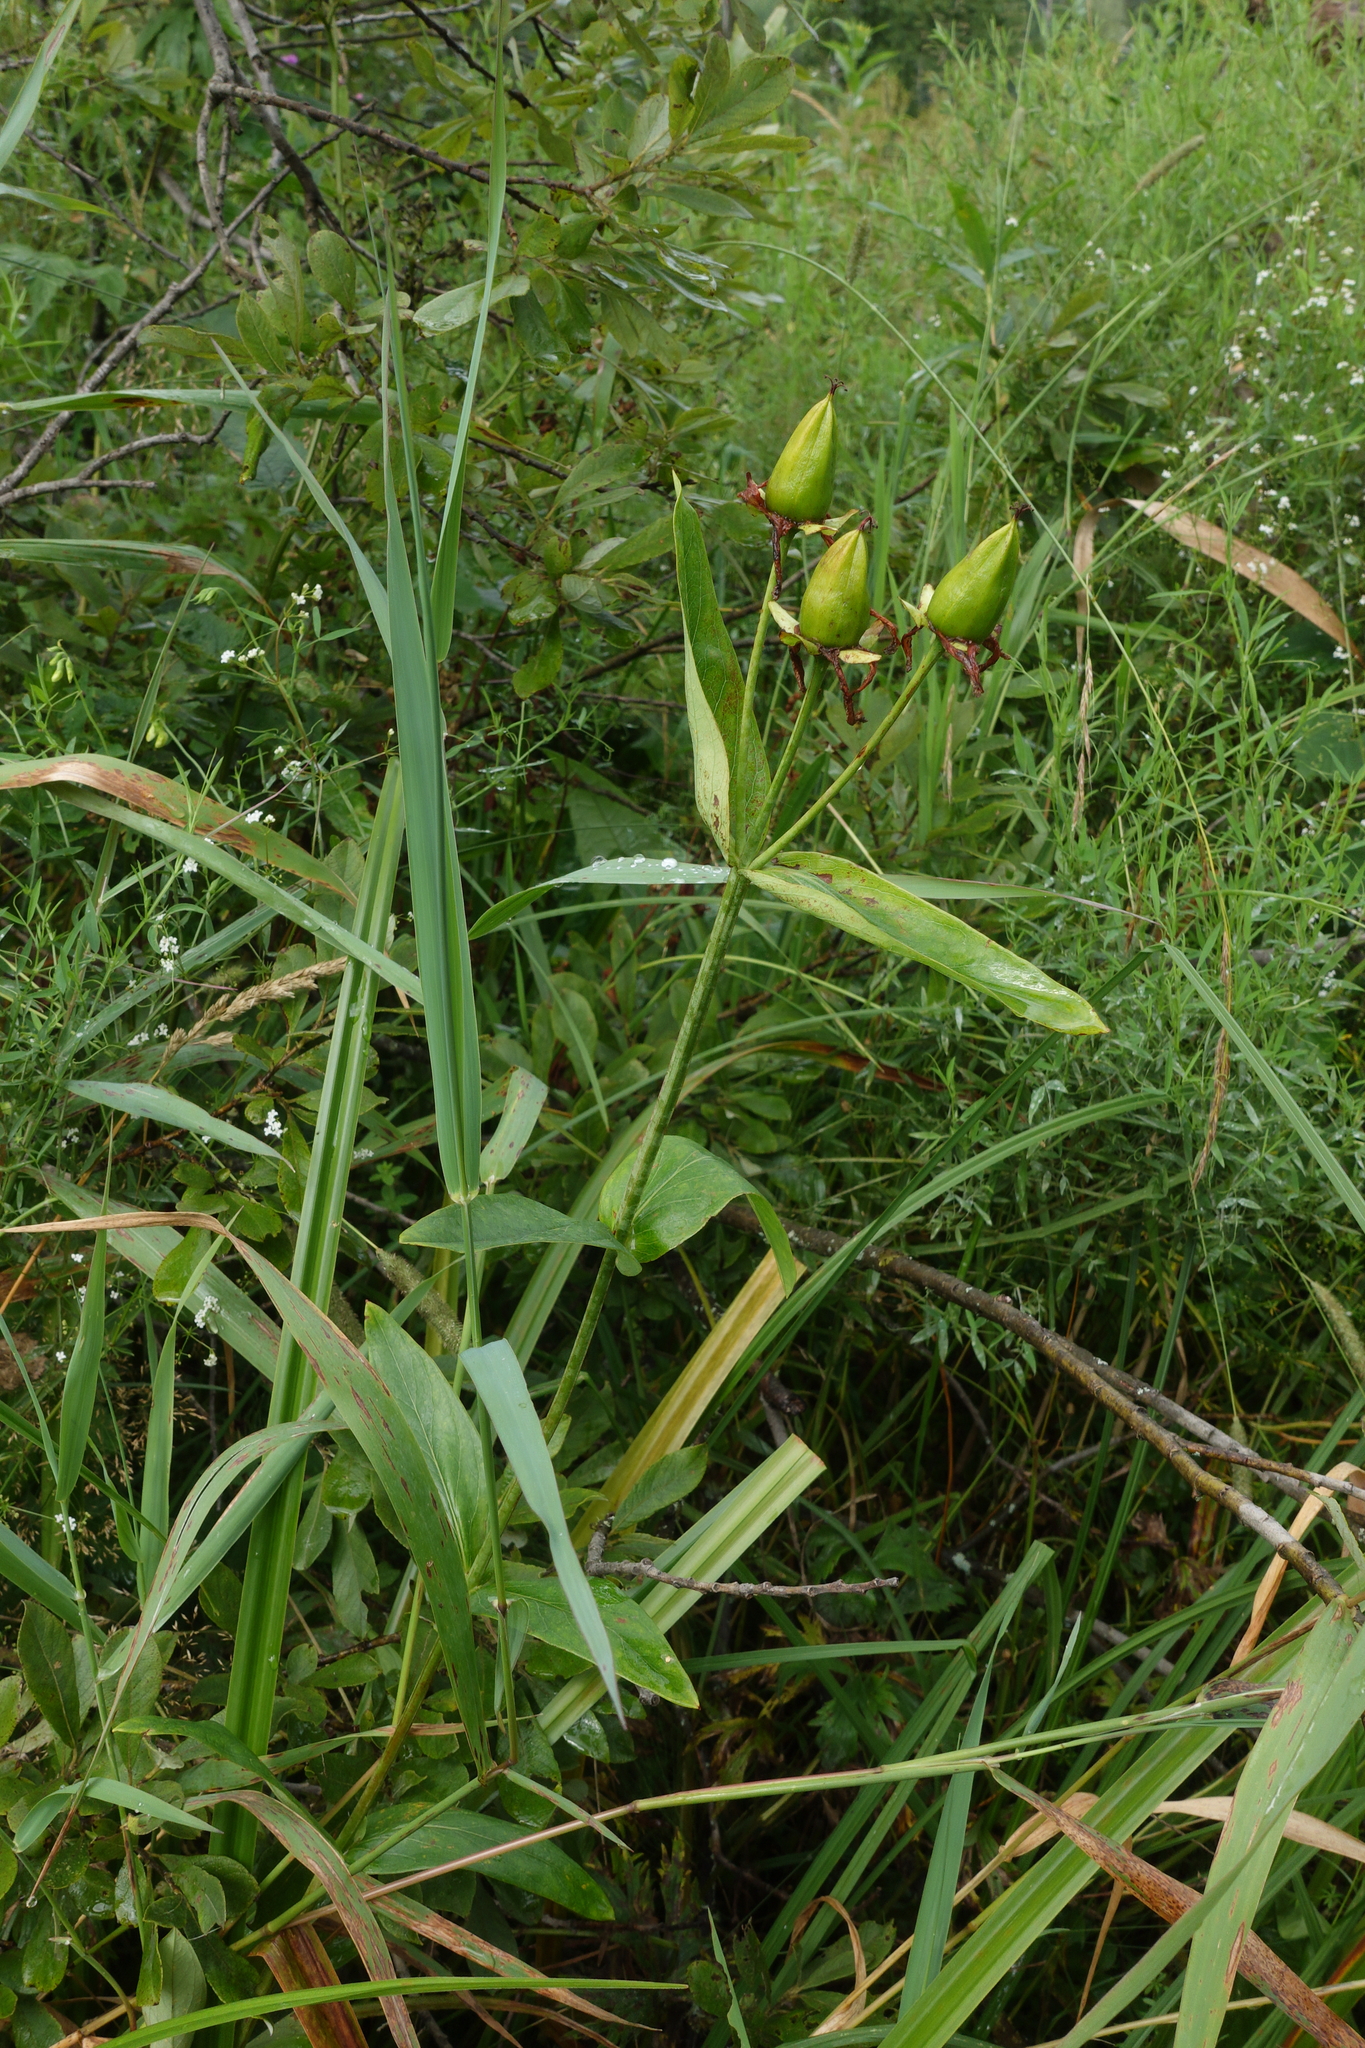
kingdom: Plantae
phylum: Tracheophyta
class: Magnoliopsida
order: Malpighiales
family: Hypericaceae
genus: Hypericum
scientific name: Hypericum ascyron
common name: Giant st. john's-wort
